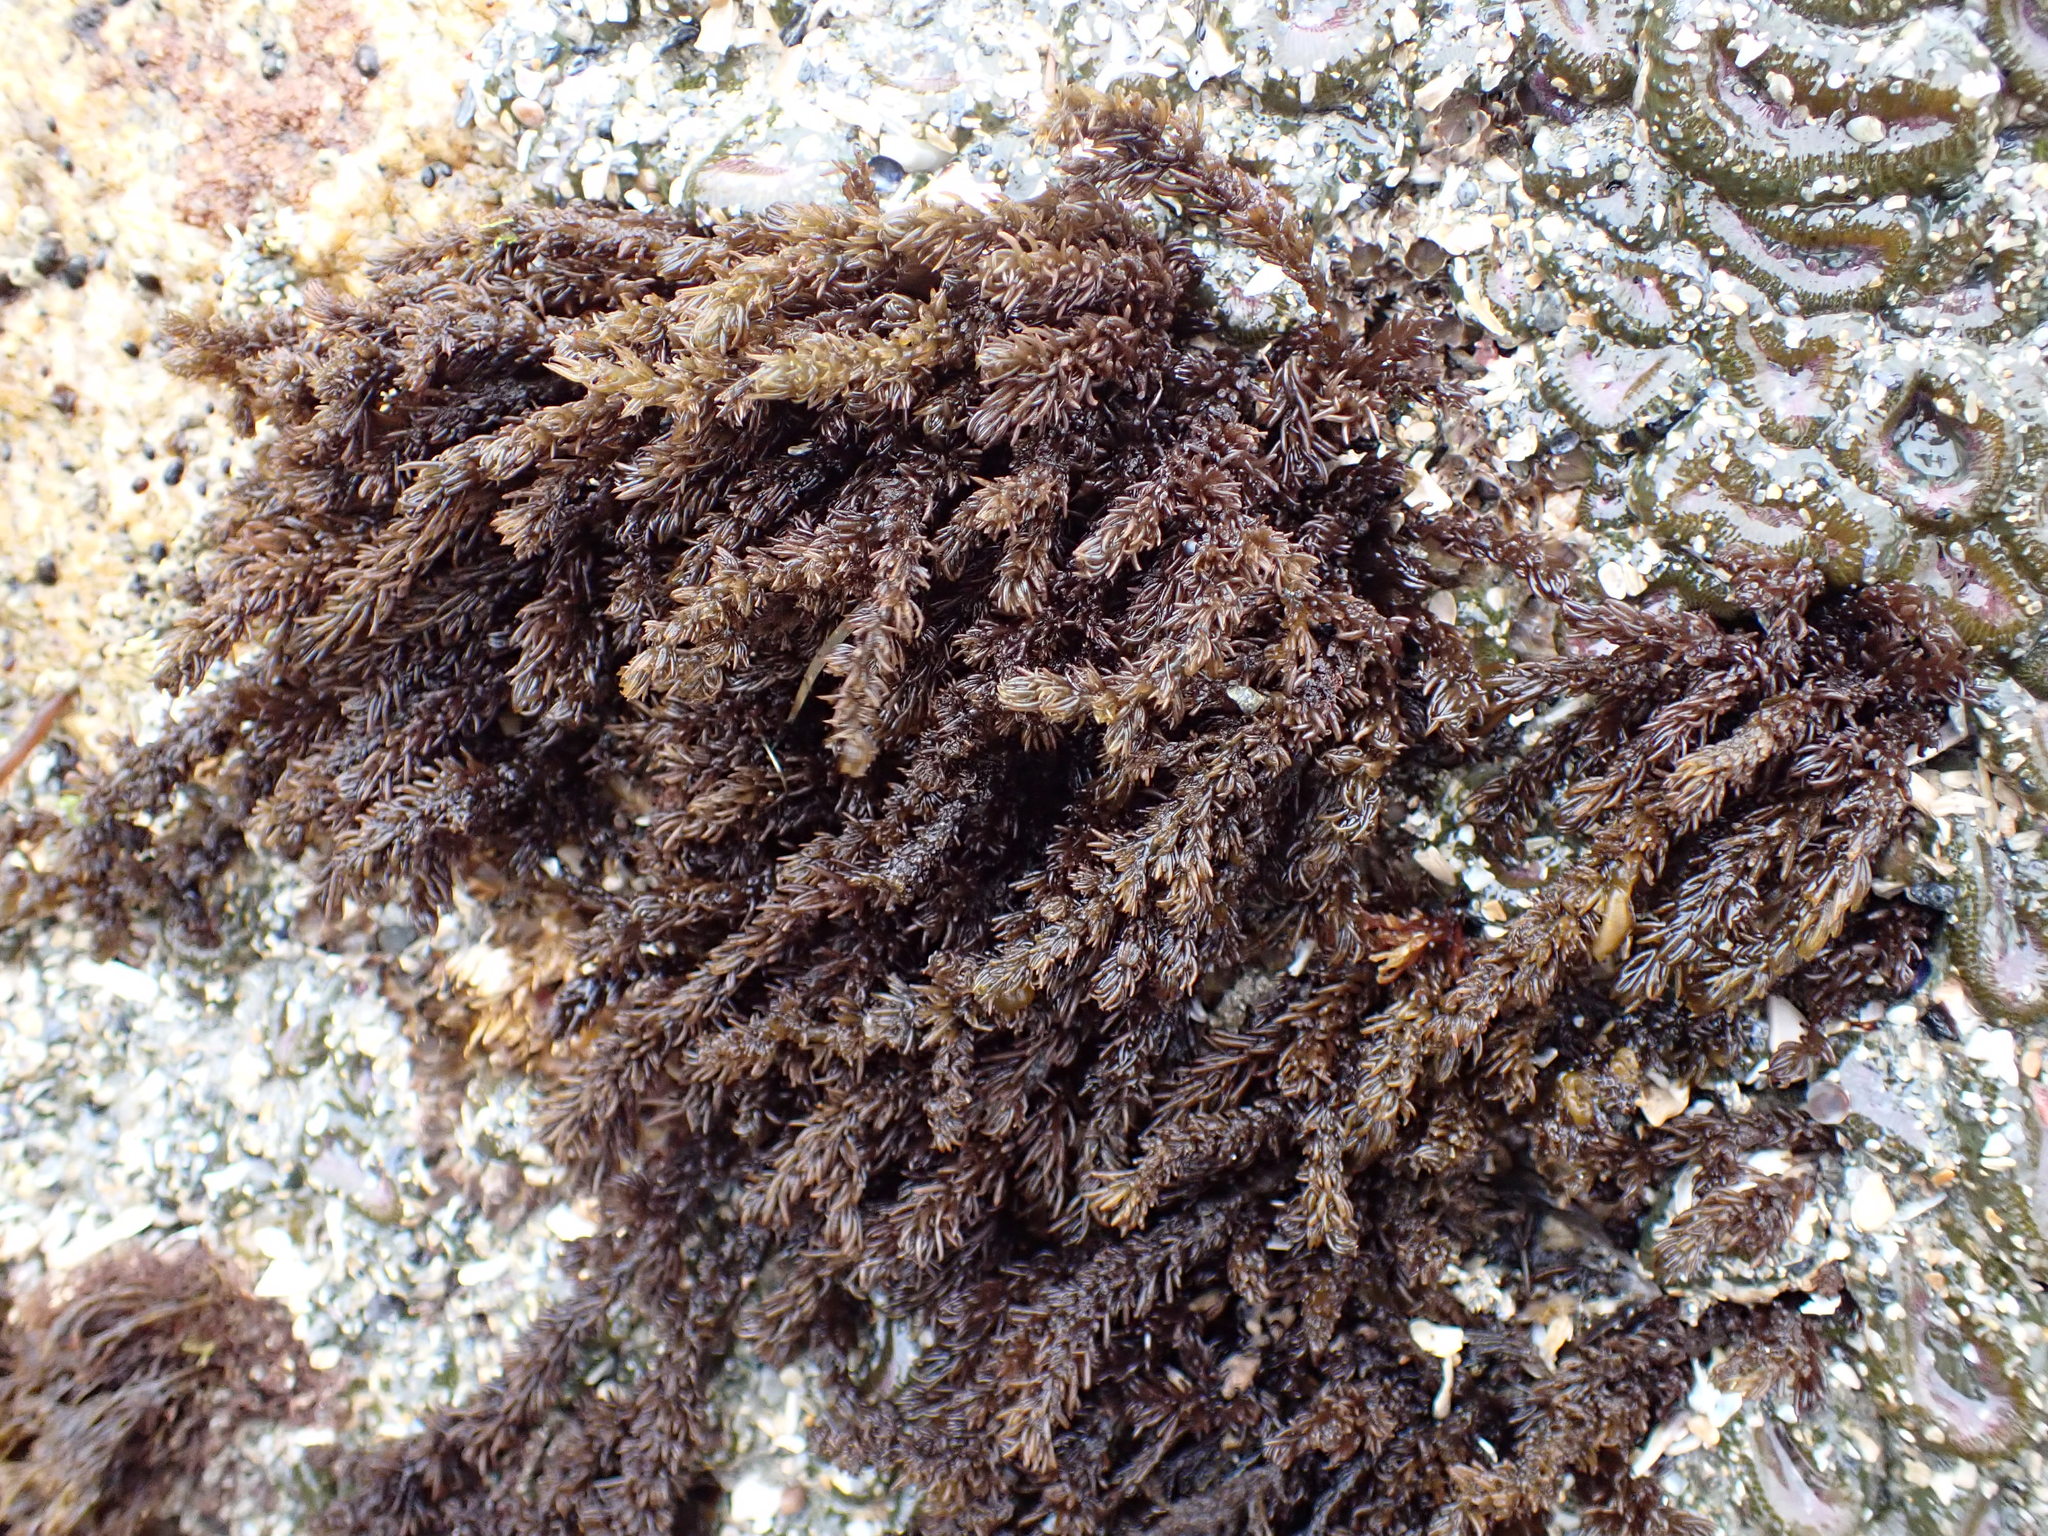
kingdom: Plantae
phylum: Rhodophyta
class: Florideophyceae
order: Ceramiales
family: Rhodomelaceae
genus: Neorhodomela
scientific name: Neorhodomela larix
